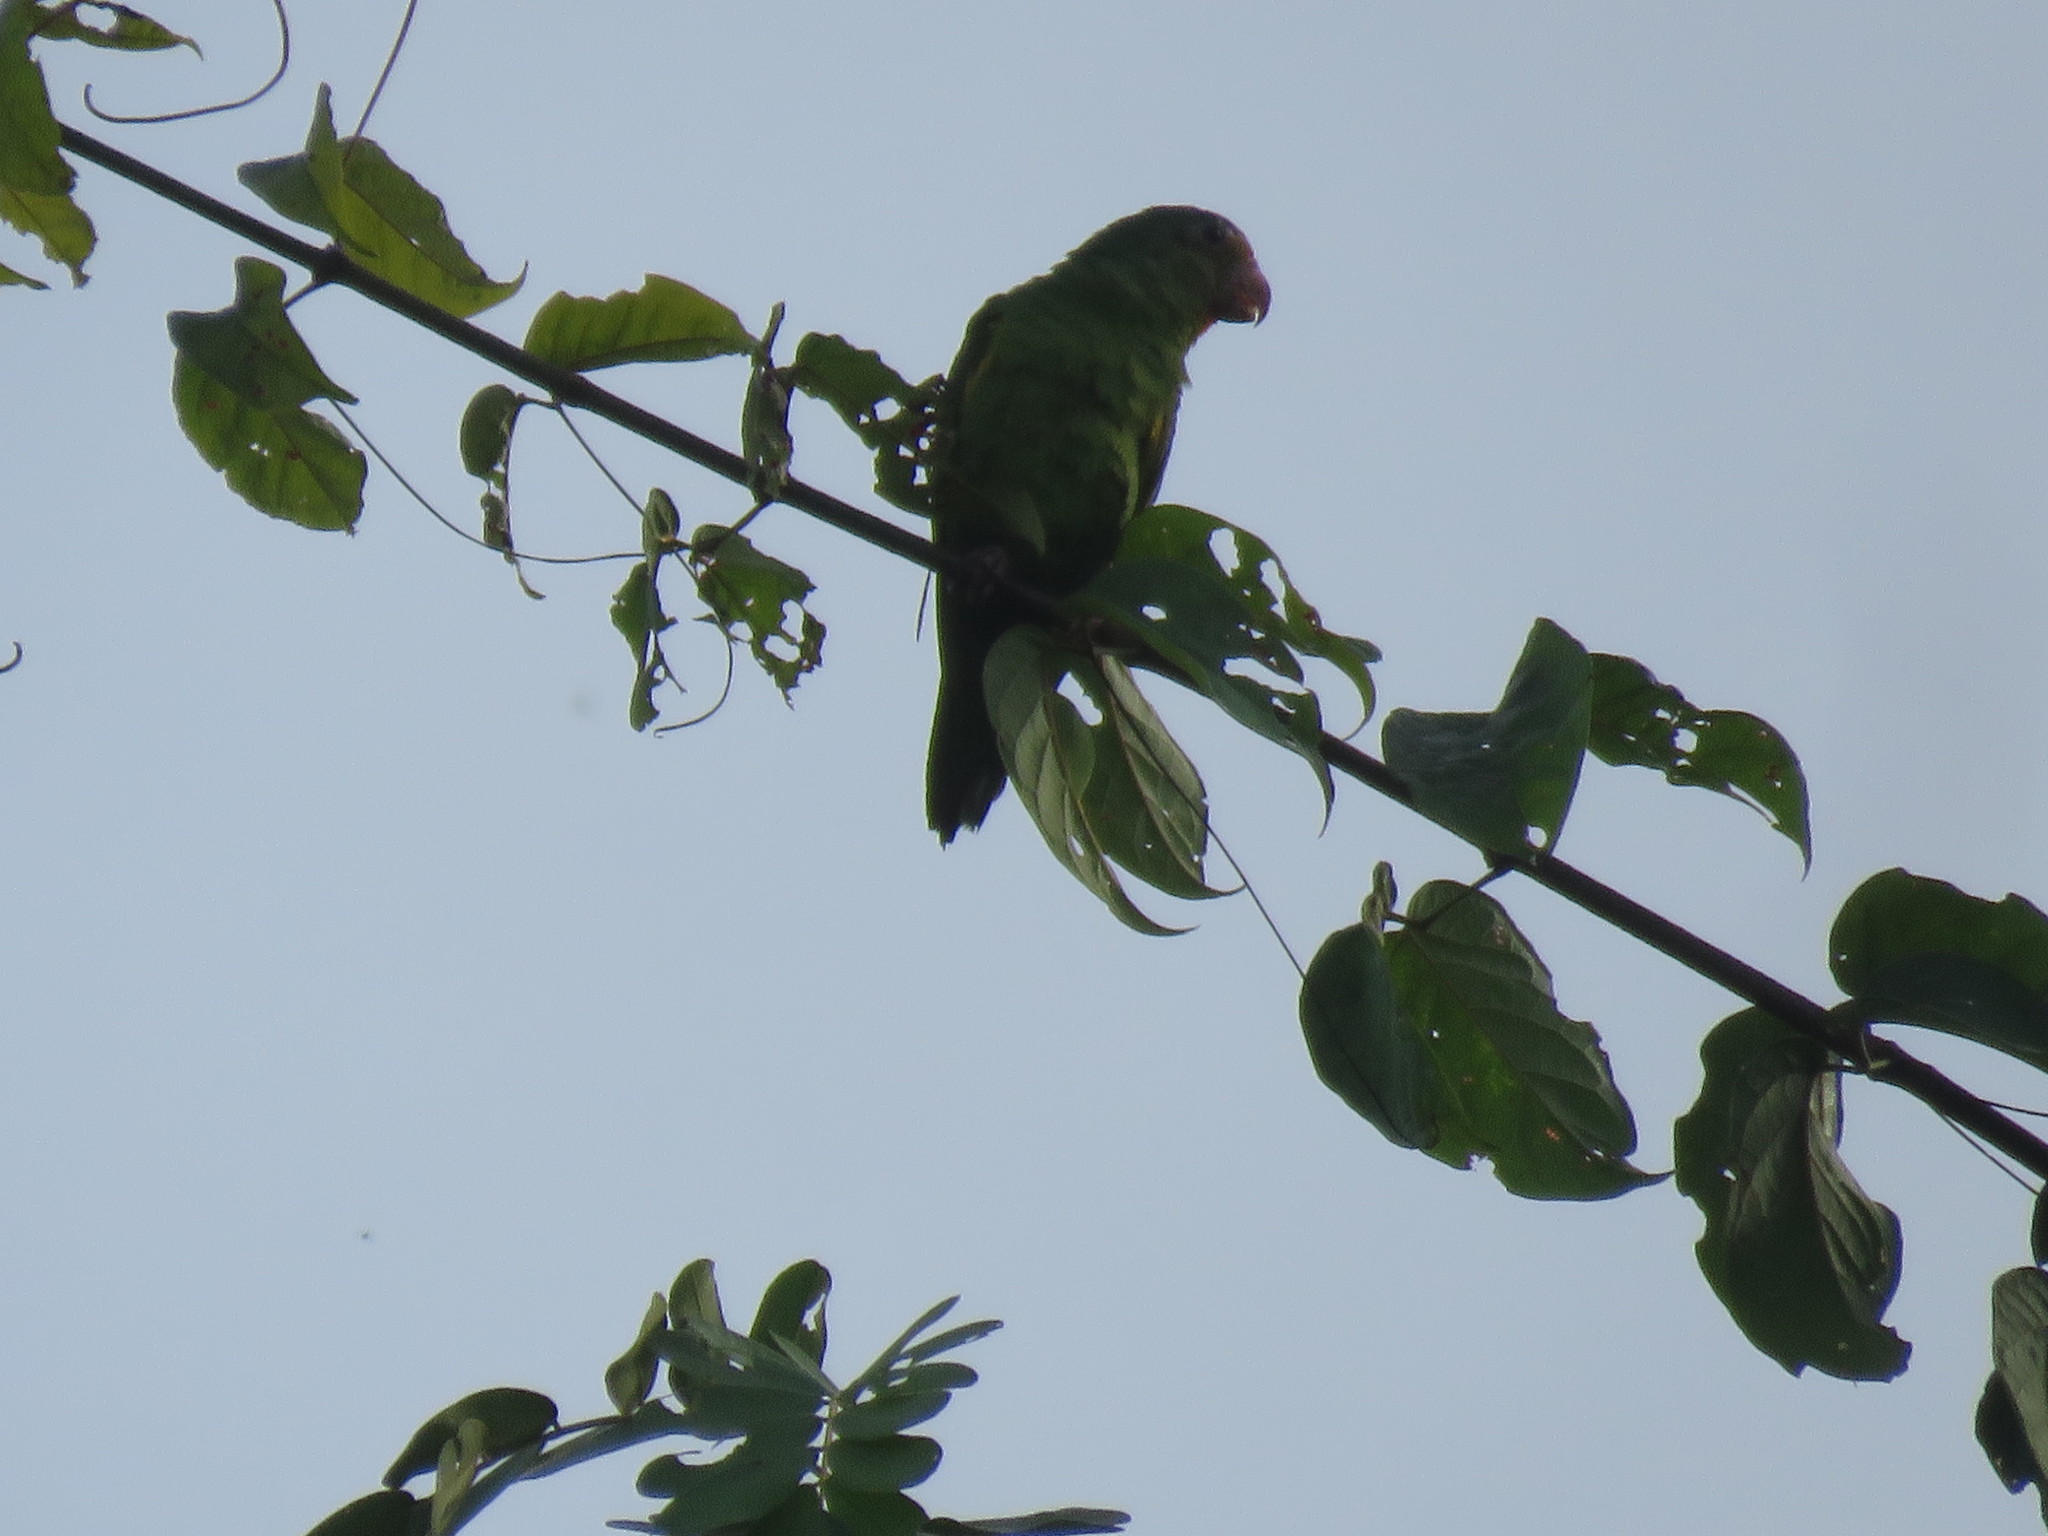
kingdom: Animalia
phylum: Chordata
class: Aves
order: Psittaciformes
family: Psittacidae
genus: Brotogeris
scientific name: Brotogeris cyanoptera
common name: Cobalt-winged parakeet
